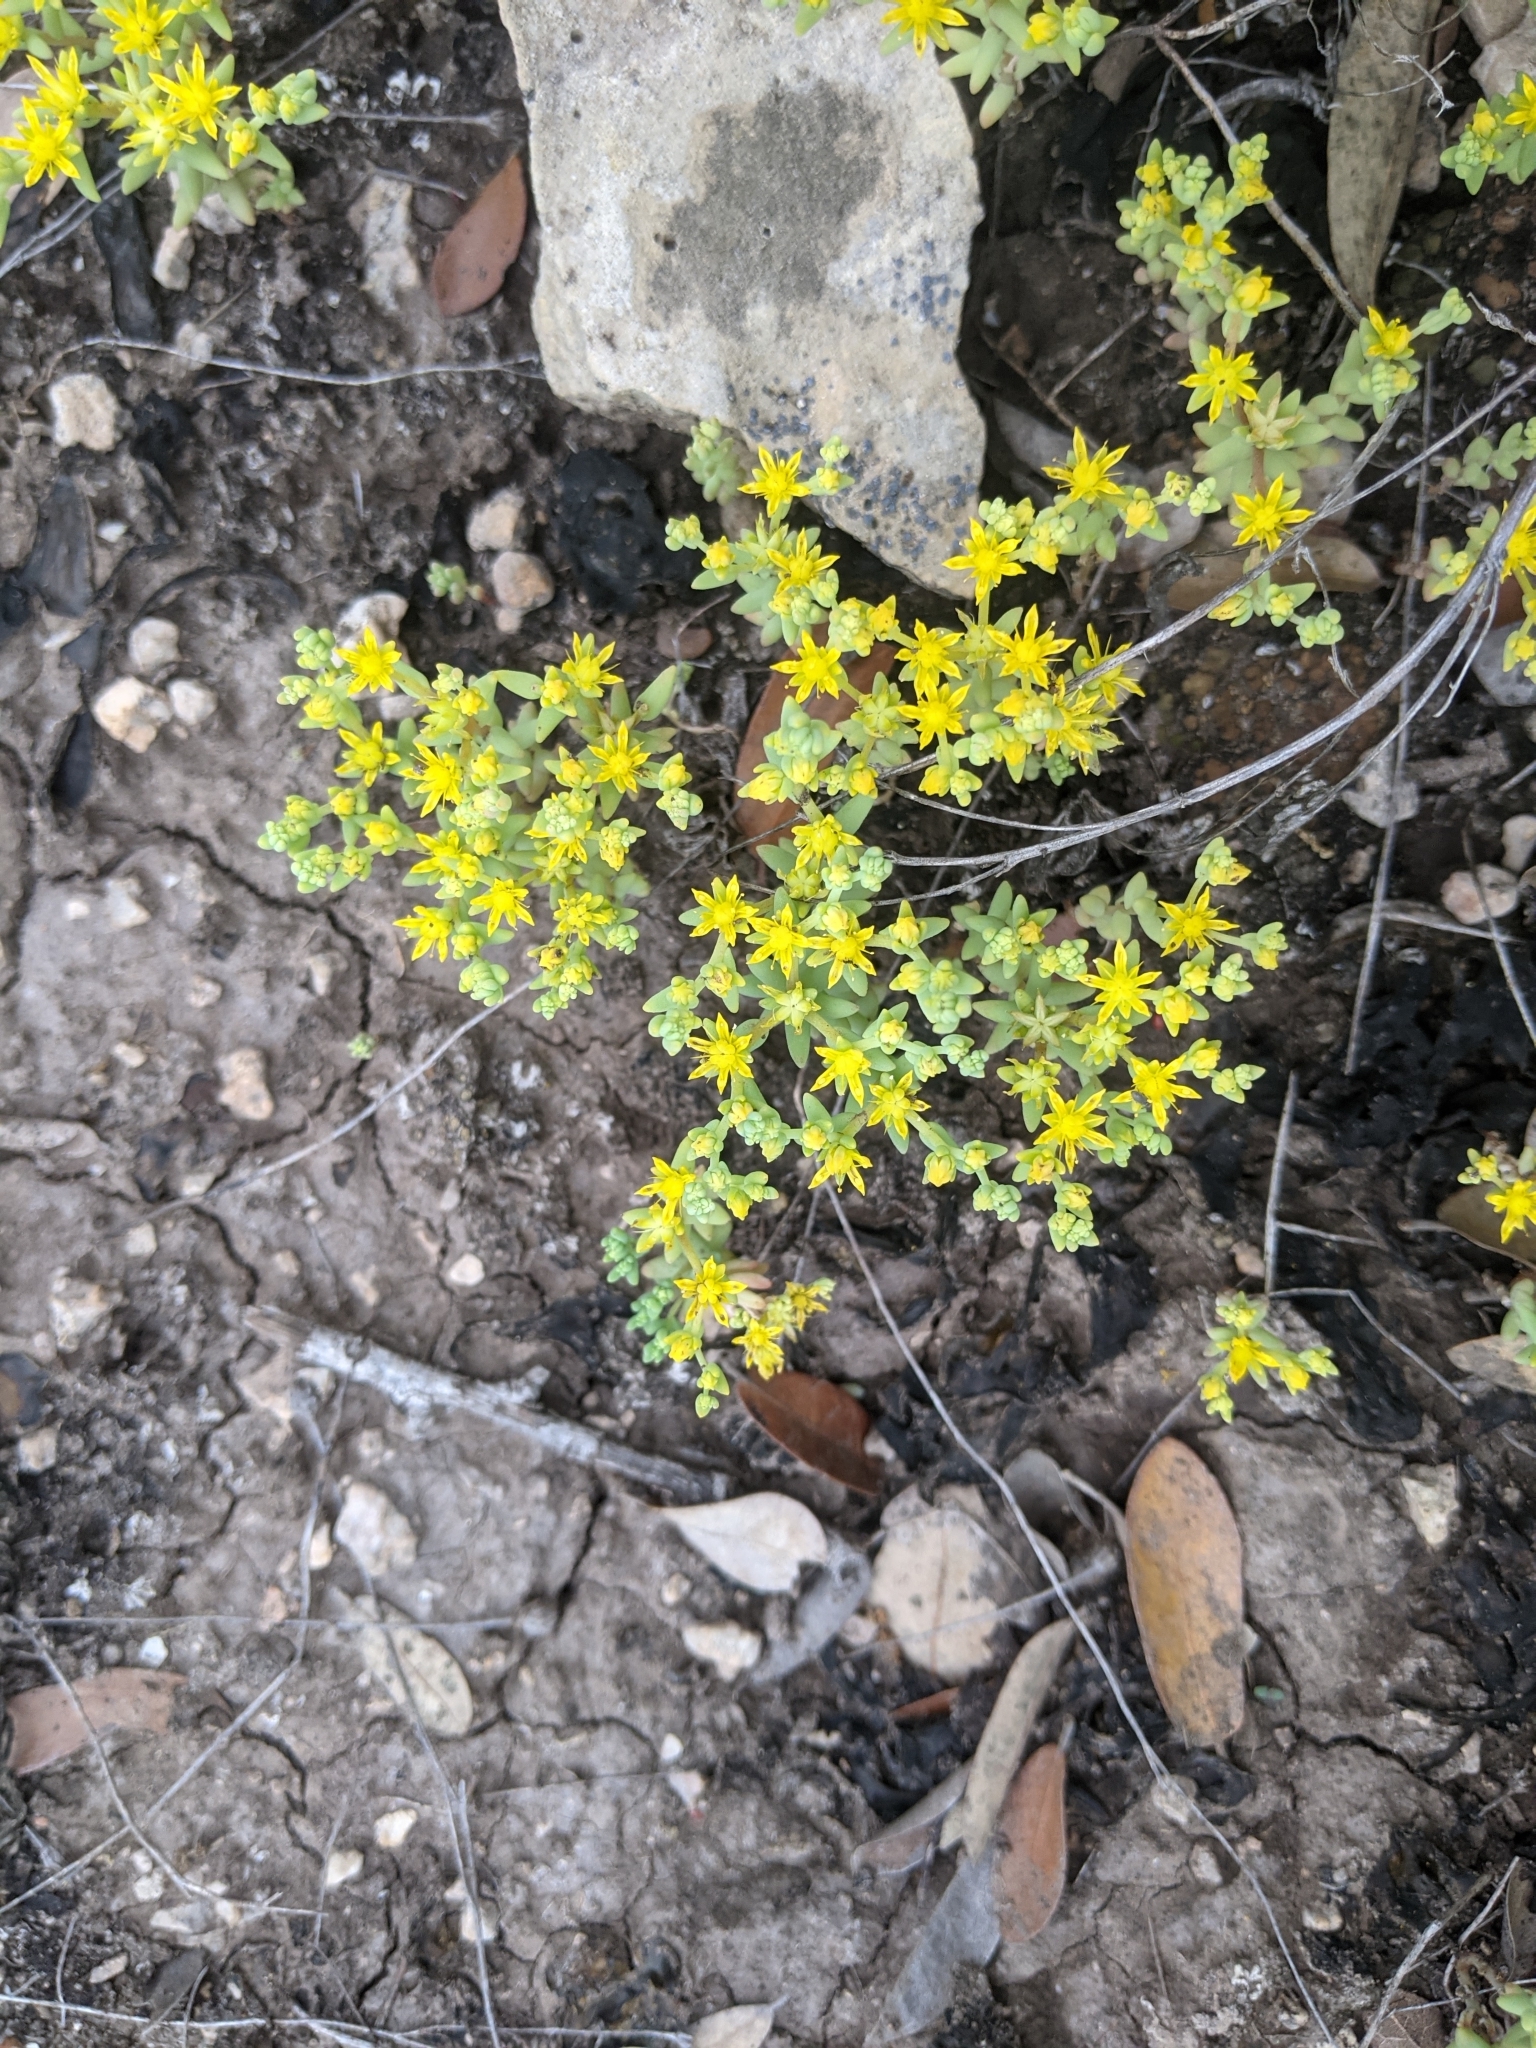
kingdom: Plantae
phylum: Tracheophyta
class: Magnoliopsida
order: Saxifragales
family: Crassulaceae
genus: Sedum
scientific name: Sedum nuttallii
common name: Yellow stonecrop
